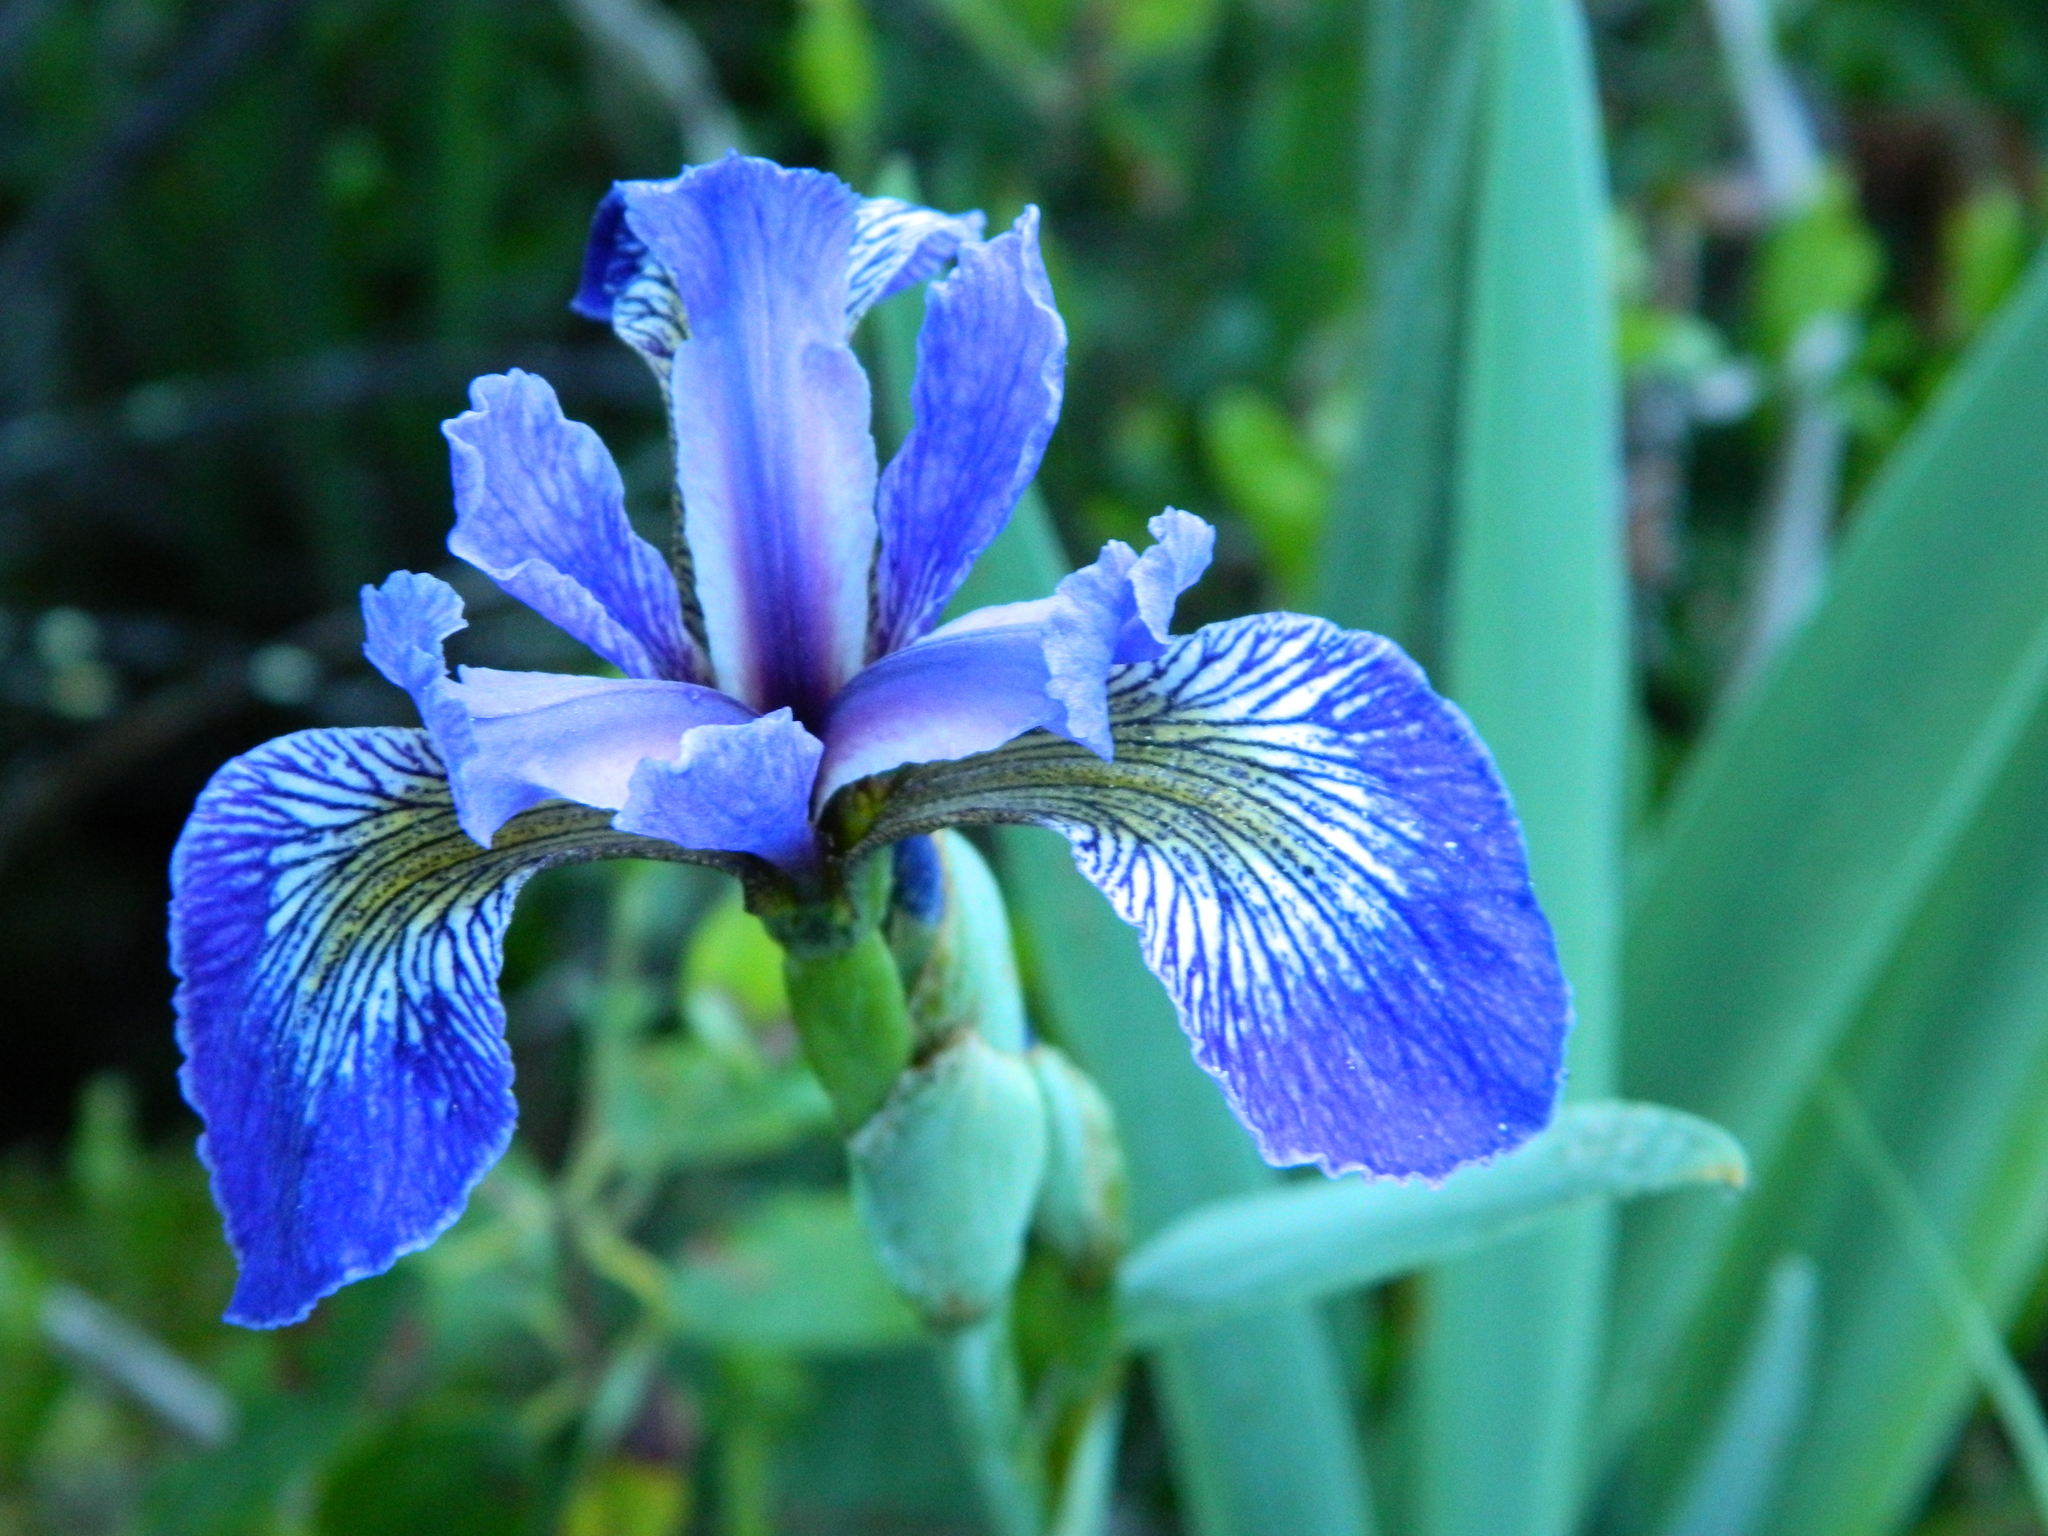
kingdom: Plantae
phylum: Tracheophyta
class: Liliopsida
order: Asparagales
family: Iridaceae
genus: Iris
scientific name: Iris versicolor
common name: Purple iris
